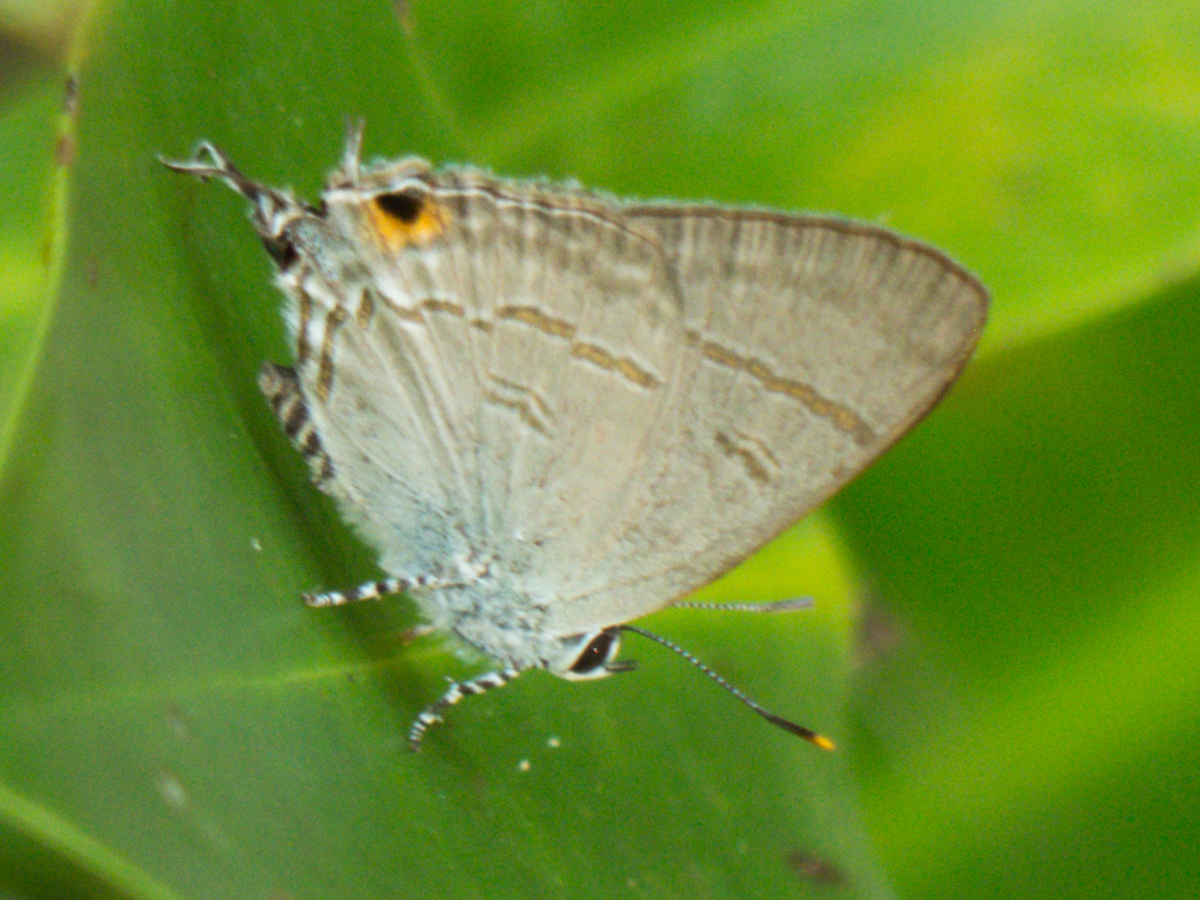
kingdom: Animalia
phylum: Arthropoda
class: Insecta
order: Lepidoptera
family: Lycaenidae
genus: Hypolycaena
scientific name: Hypolycaena erylus
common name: Common tit
